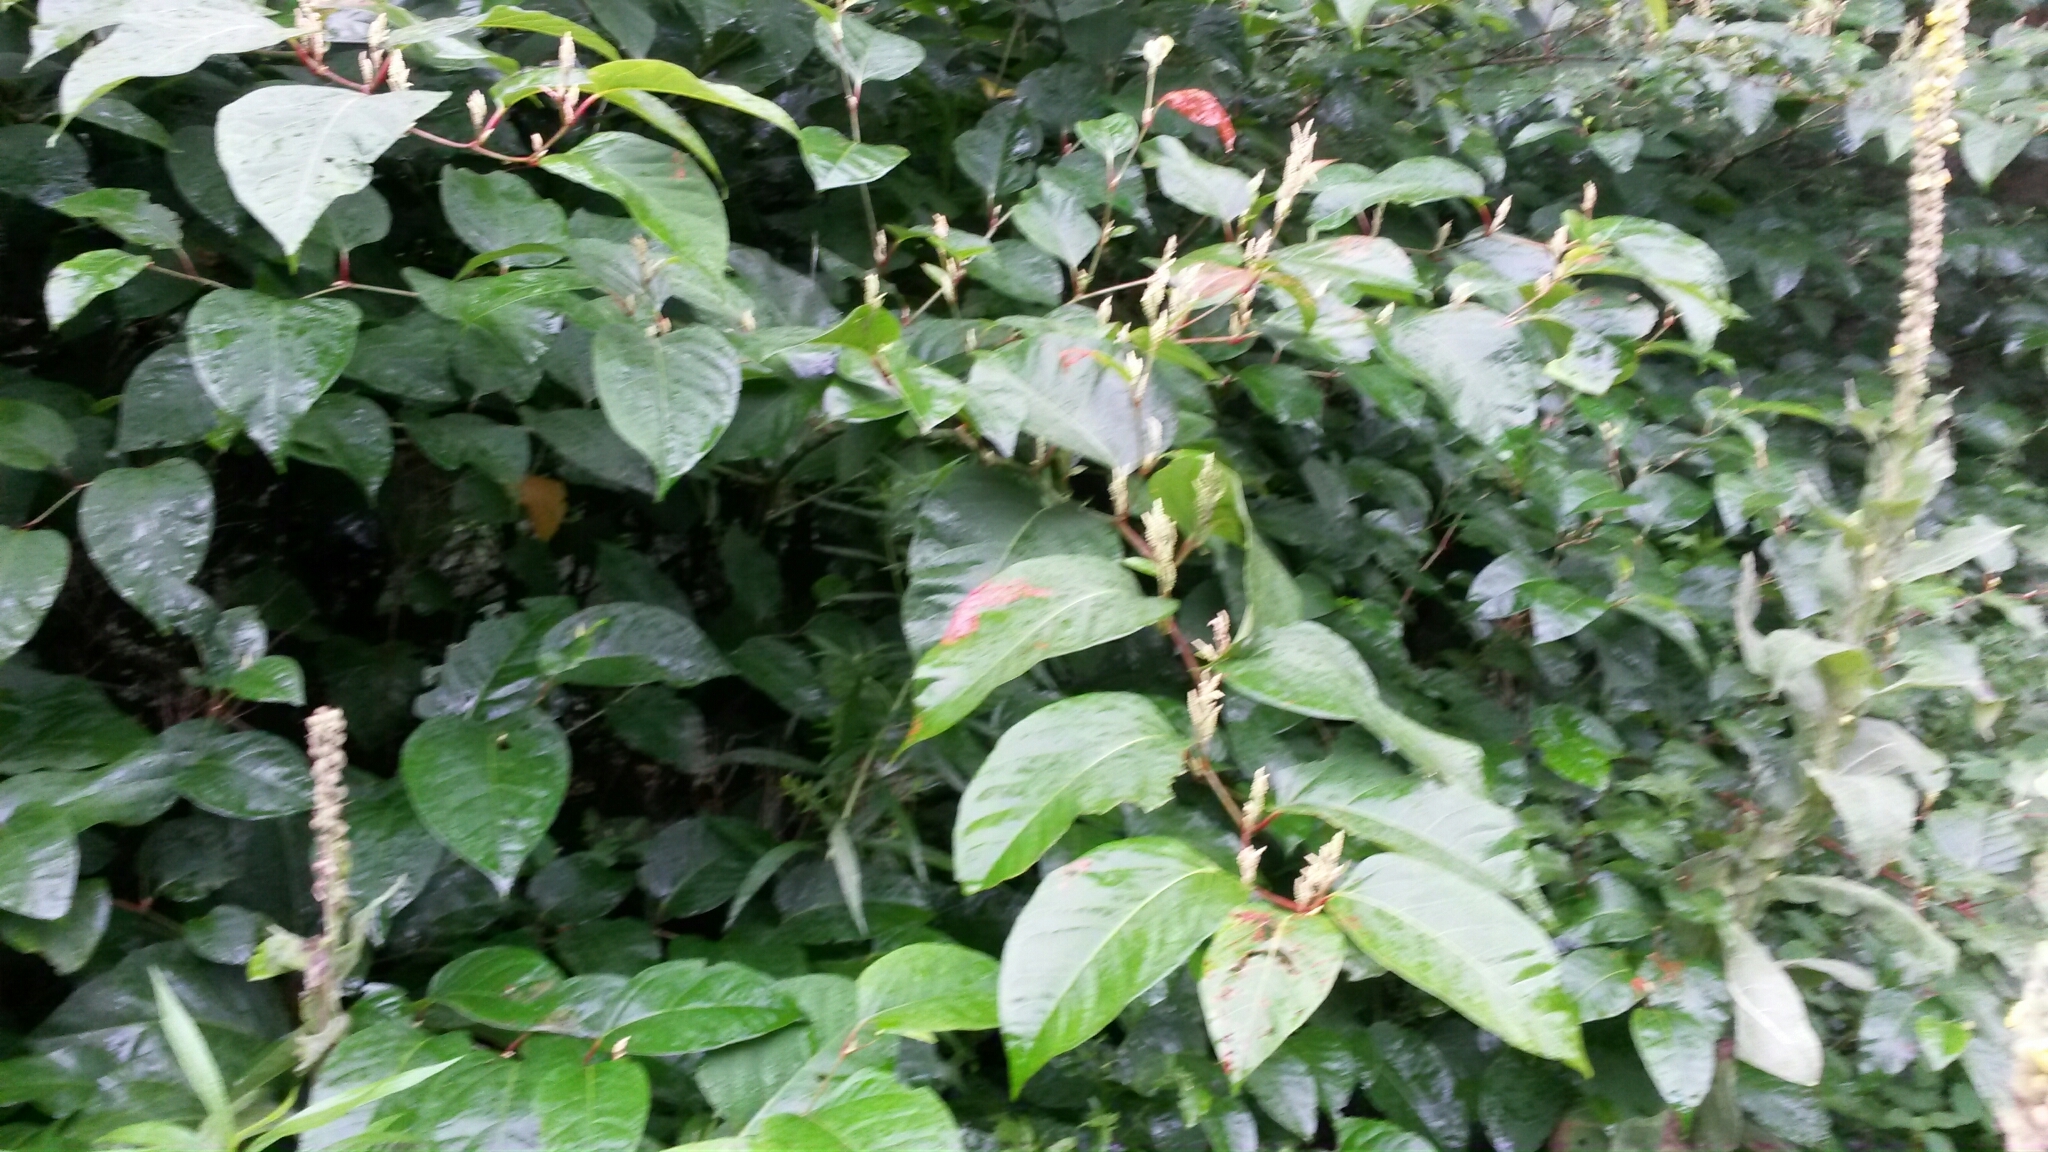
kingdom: Plantae
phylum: Tracheophyta
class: Magnoliopsida
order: Caryophyllales
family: Polygonaceae
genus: Reynoutria
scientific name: Reynoutria japonica
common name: Japanese knotweed
